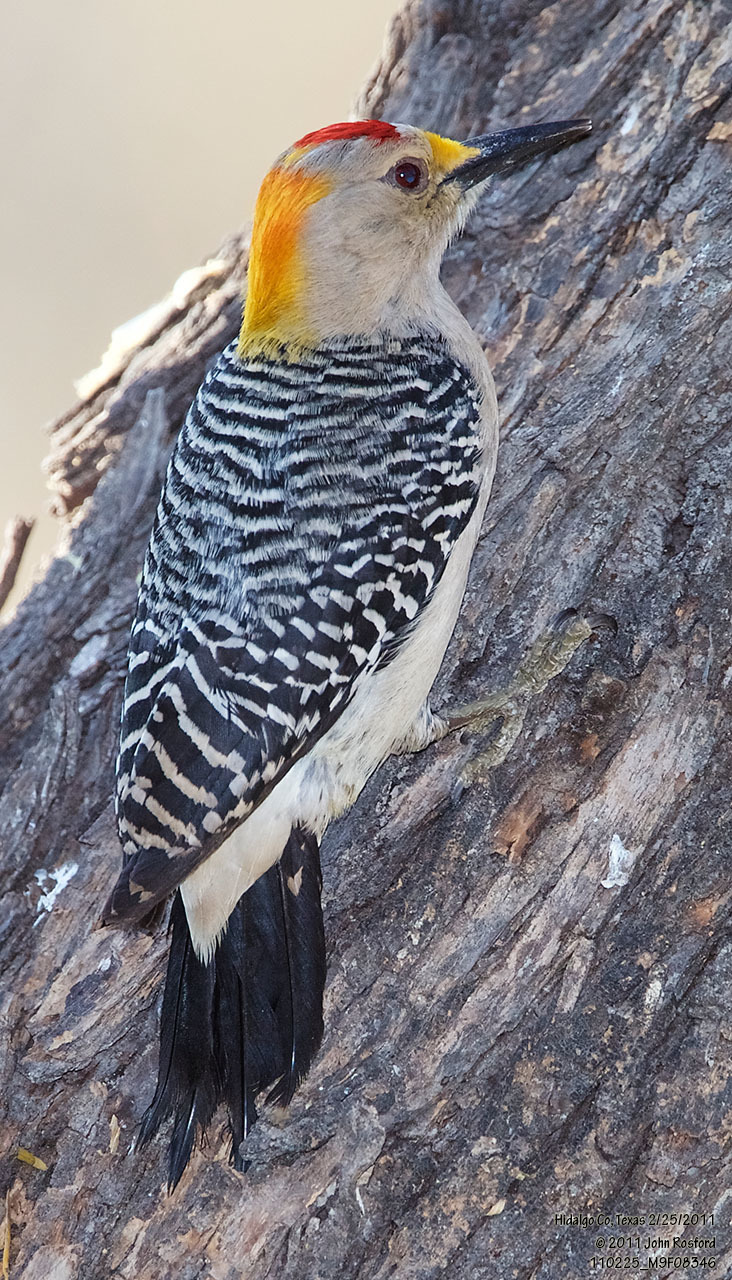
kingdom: Animalia
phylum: Chordata
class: Aves
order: Piciformes
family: Picidae
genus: Melanerpes
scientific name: Melanerpes aurifrons
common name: Golden-fronted woodpecker
